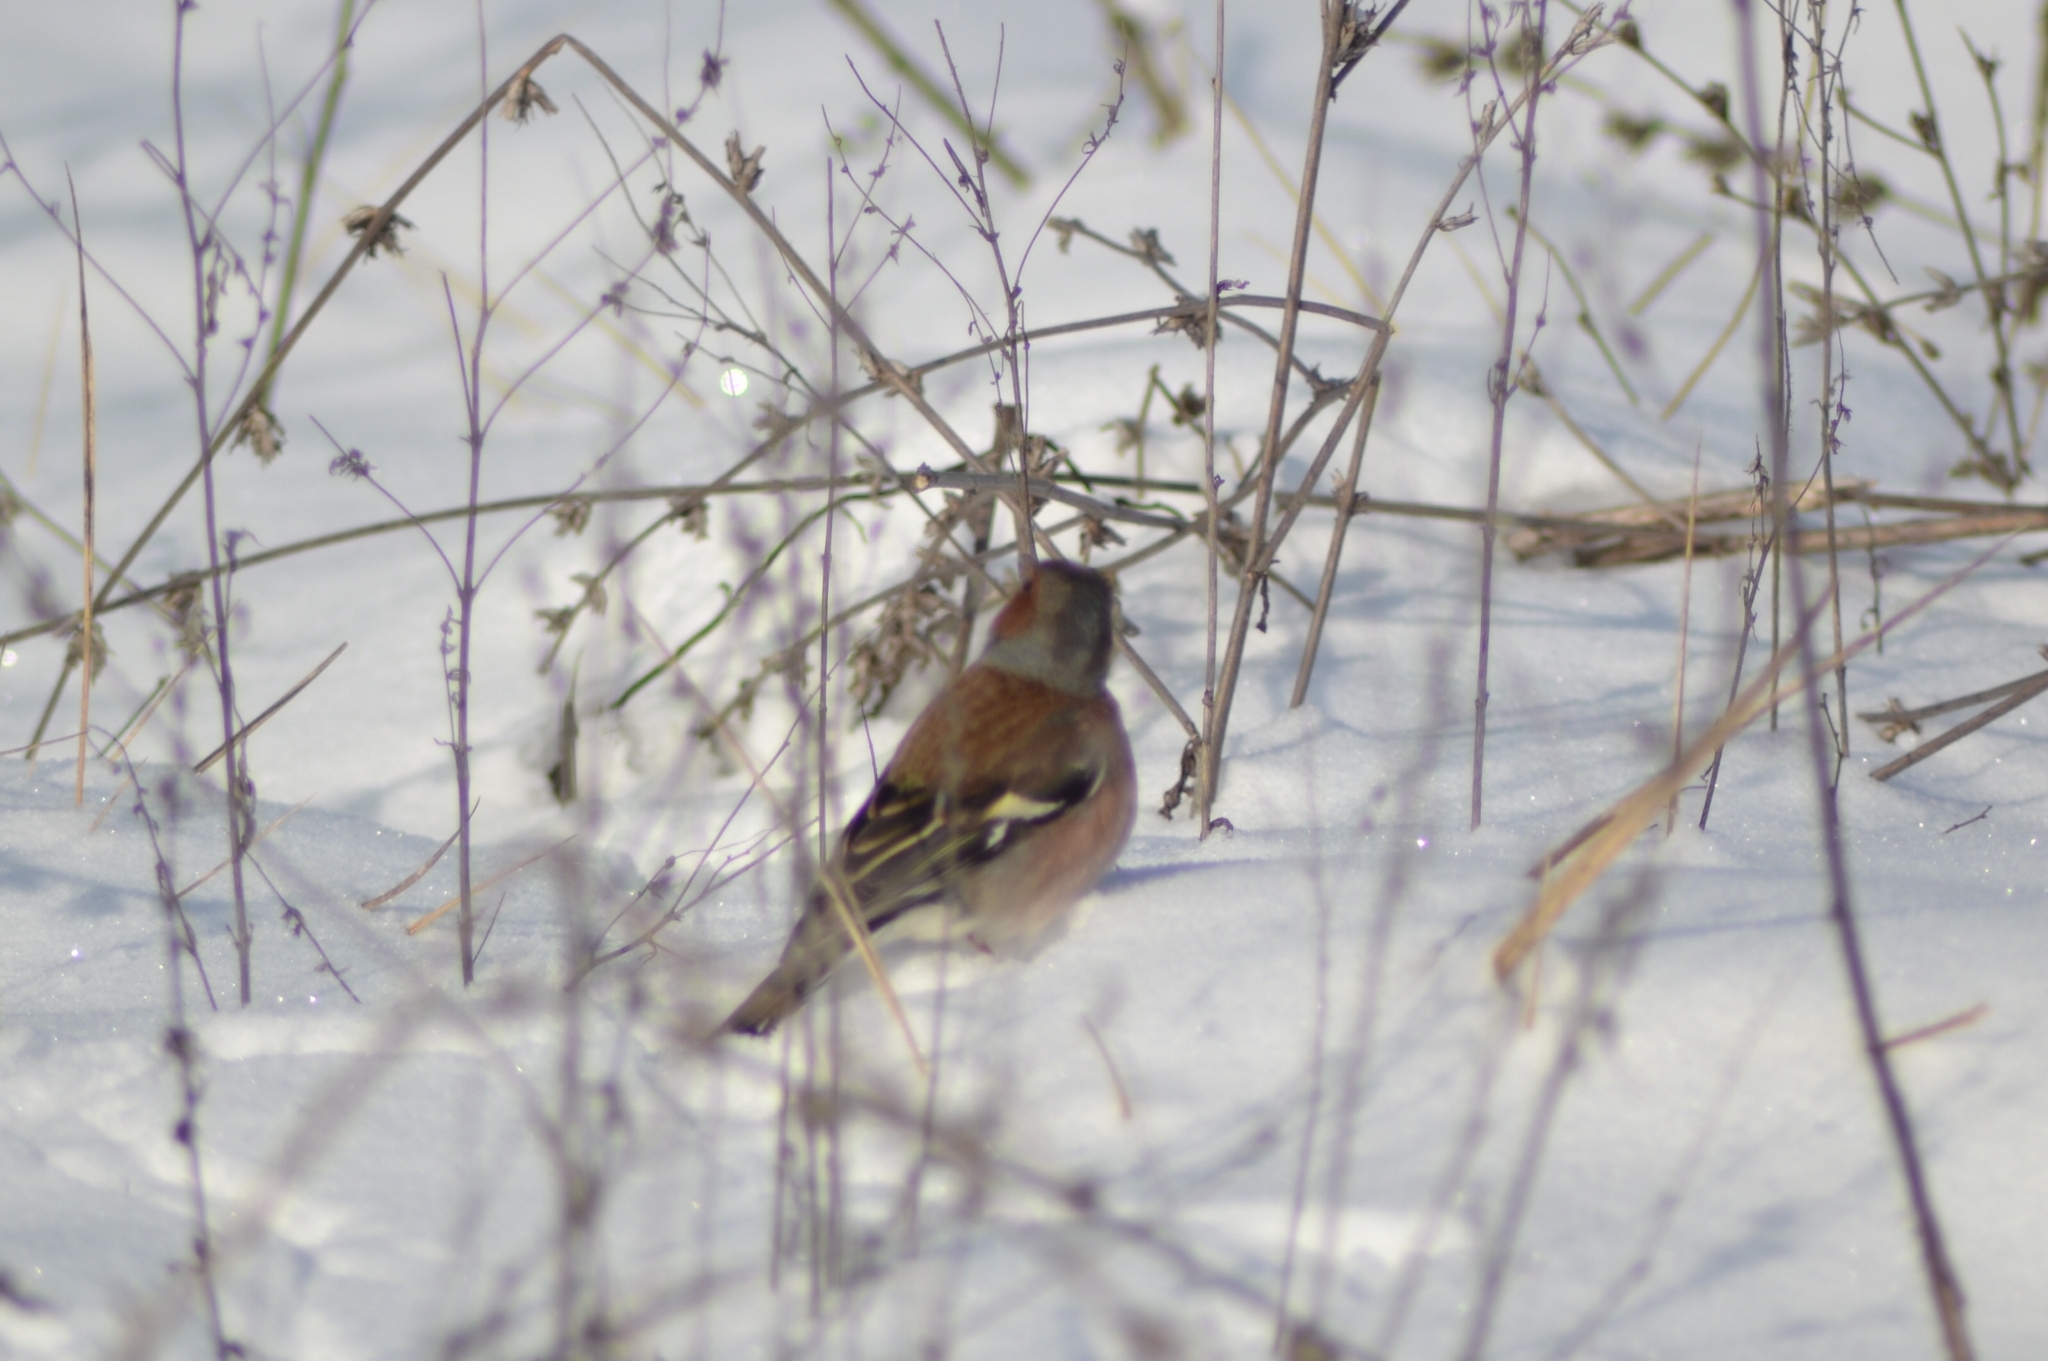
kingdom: Animalia
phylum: Chordata
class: Aves
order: Passeriformes
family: Fringillidae
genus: Fringilla
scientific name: Fringilla coelebs
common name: Common chaffinch
